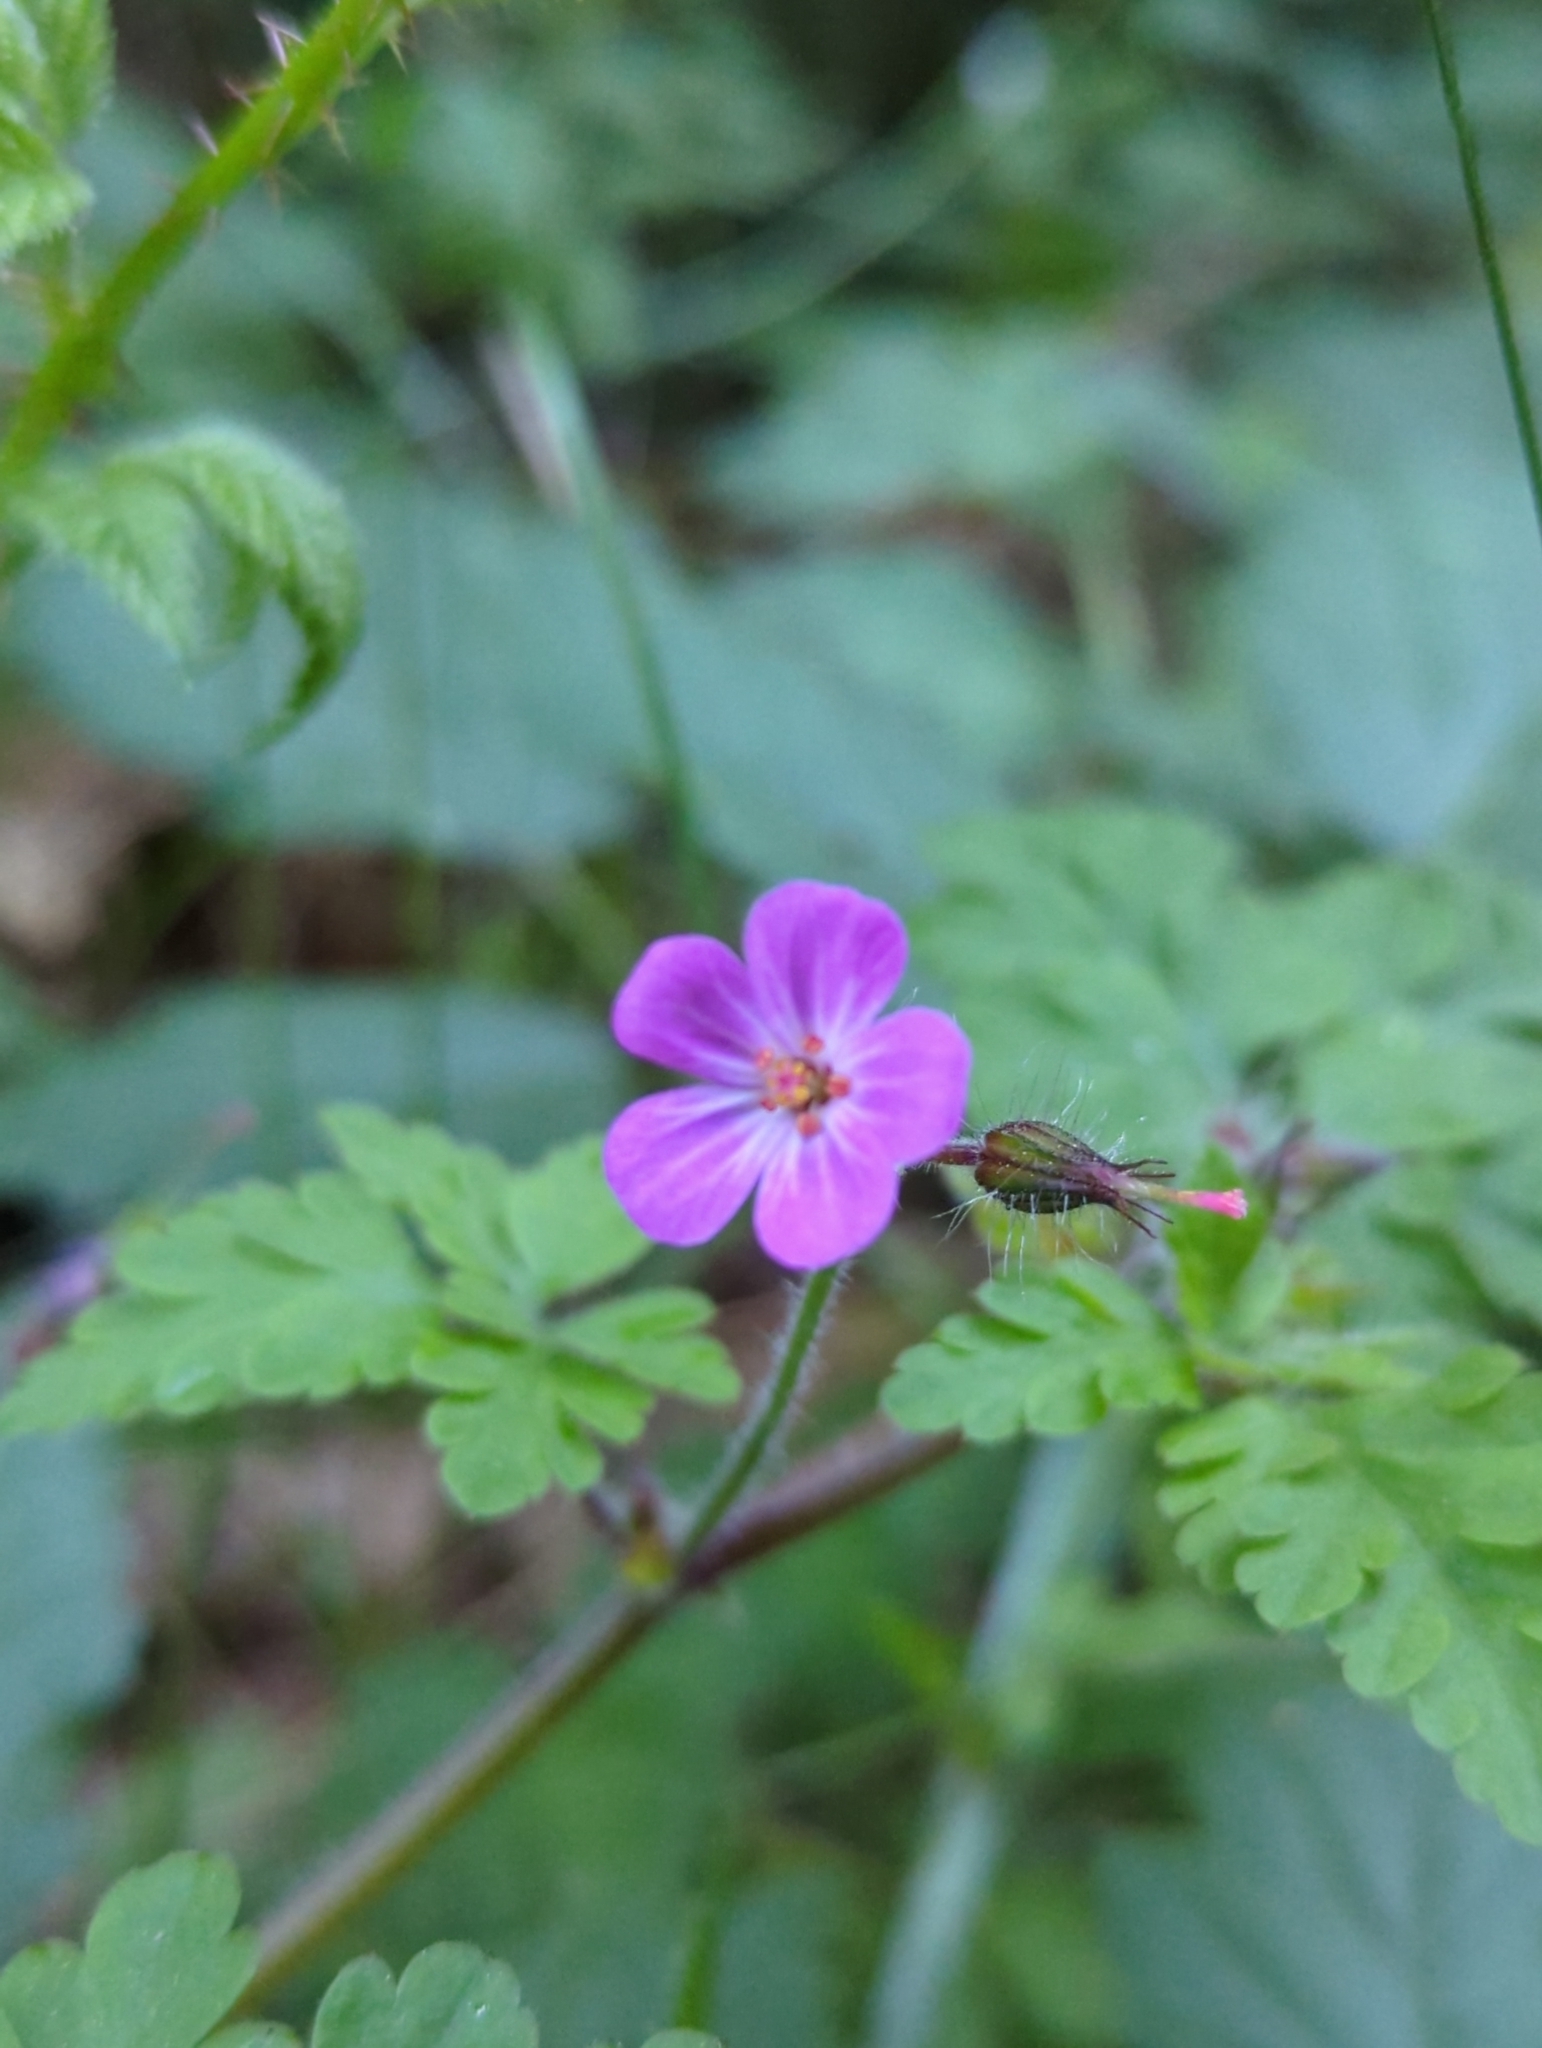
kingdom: Plantae
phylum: Tracheophyta
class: Magnoliopsida
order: Geraniales
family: Geraniaceae
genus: Geranium
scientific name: Geranium robertianum
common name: Herb-robert
